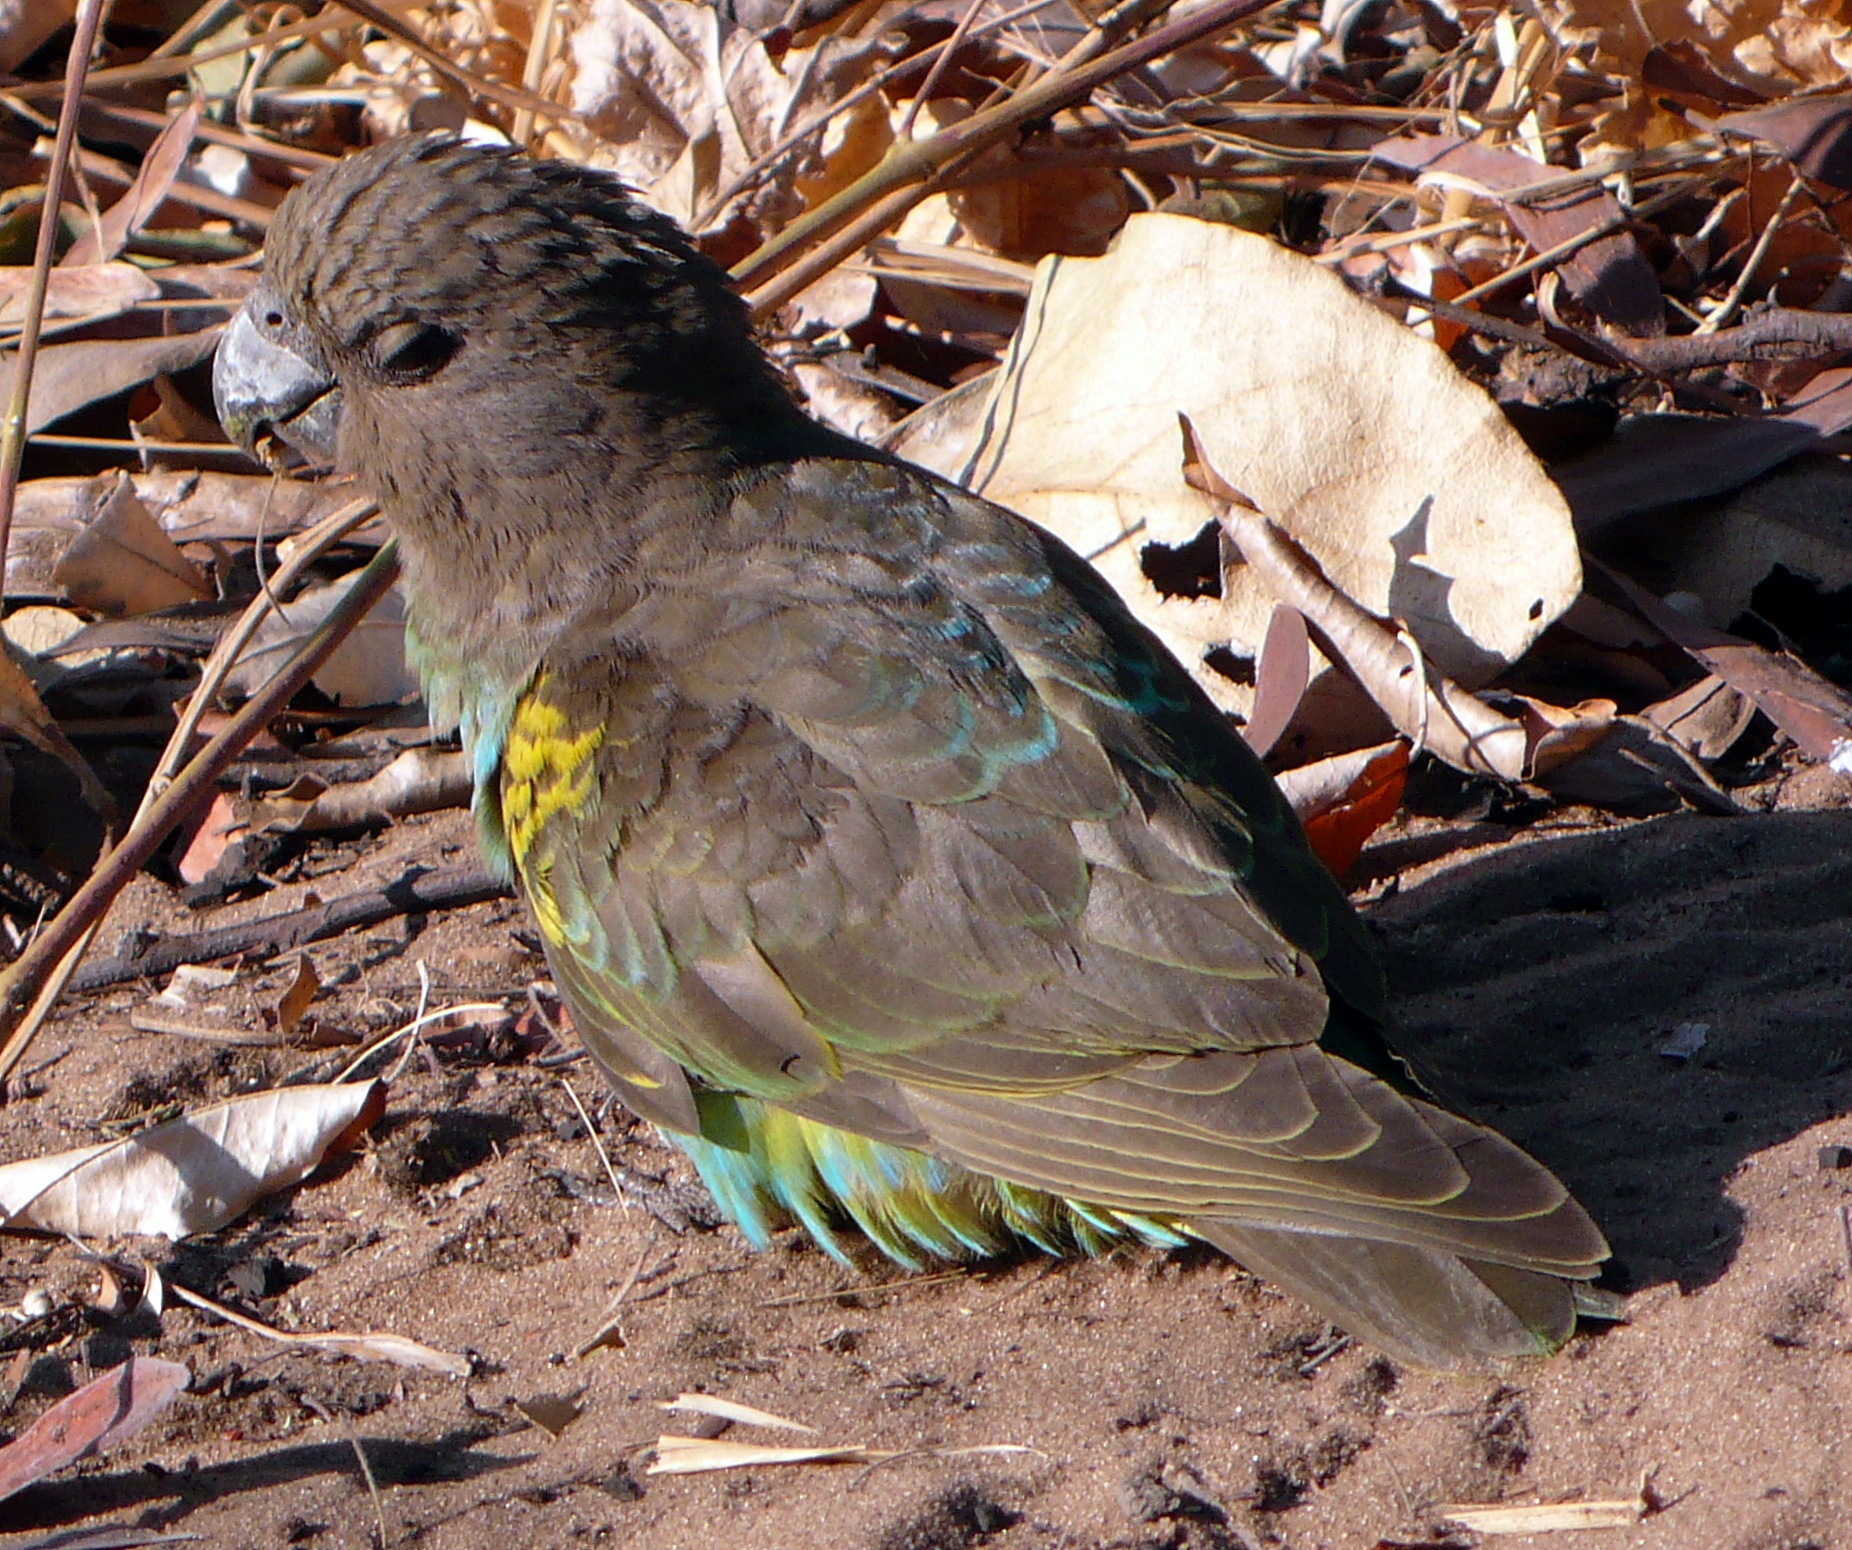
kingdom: Animalia
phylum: Chordata
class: Aves
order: Psittaciformes
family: Psittacidae
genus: Poicephalus
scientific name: Poicephalus meyeri
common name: Meyer's parrot
